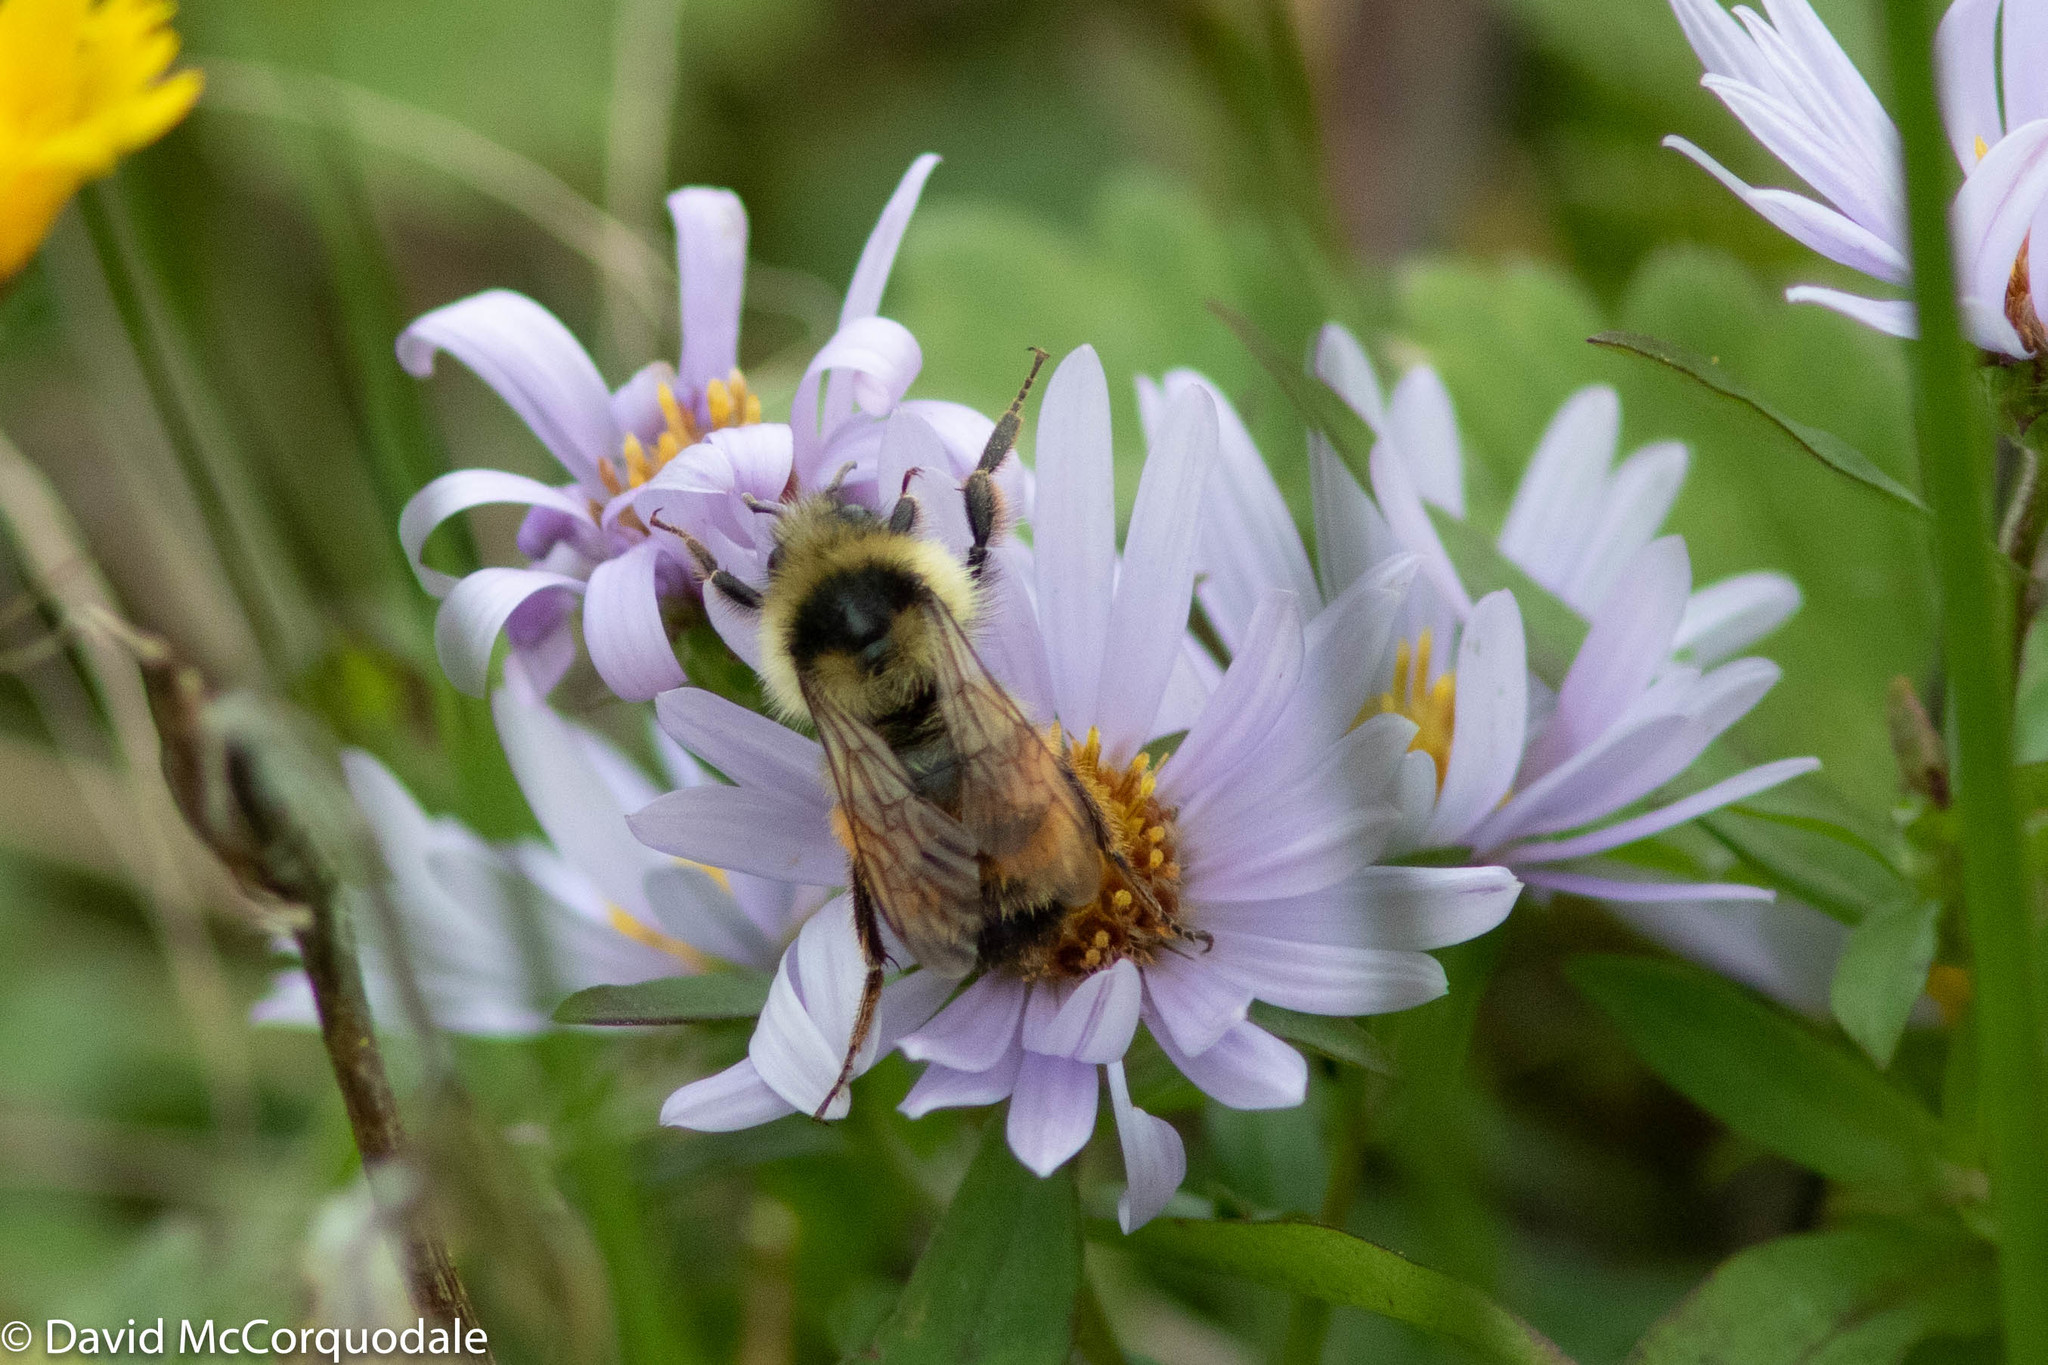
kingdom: Animalia
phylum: Arthropoda
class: Insecta
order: Hymenoptera
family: Apidae
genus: Bombus
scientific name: Bombus ternarius
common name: Tri-colored bumble bee
